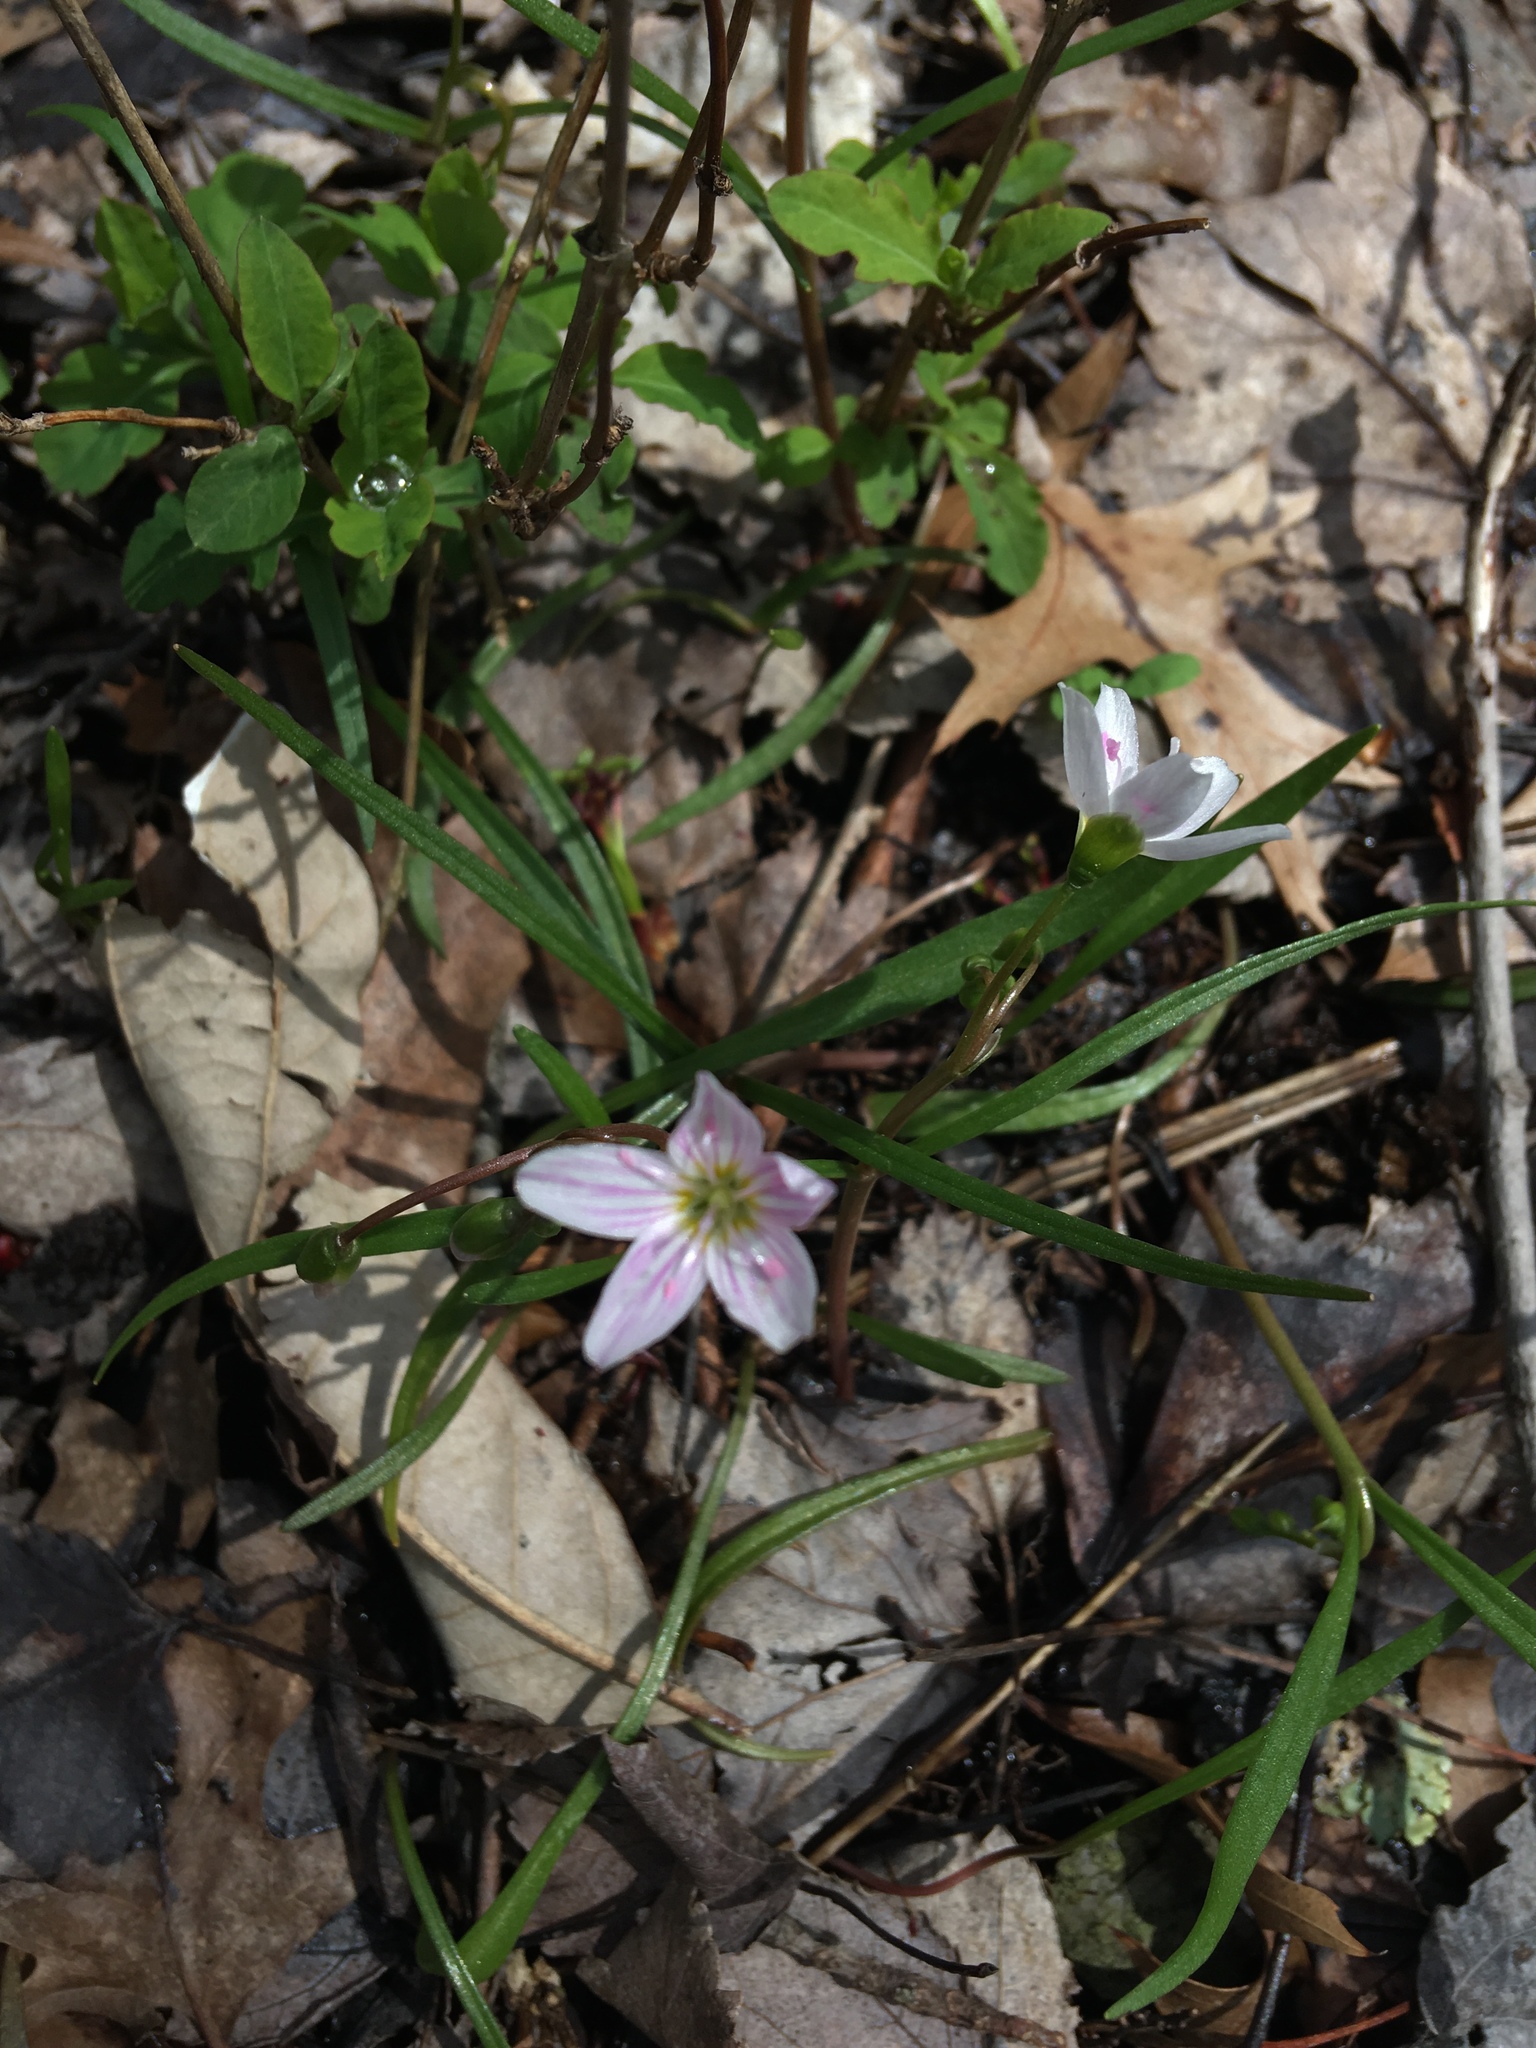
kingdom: Plantae
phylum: Tracheophyta
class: Magnoliopsida
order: Caryophyllales
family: Montiaceae
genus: Claytonia
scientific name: Claytonia virginica
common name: Virginia springbeauty
